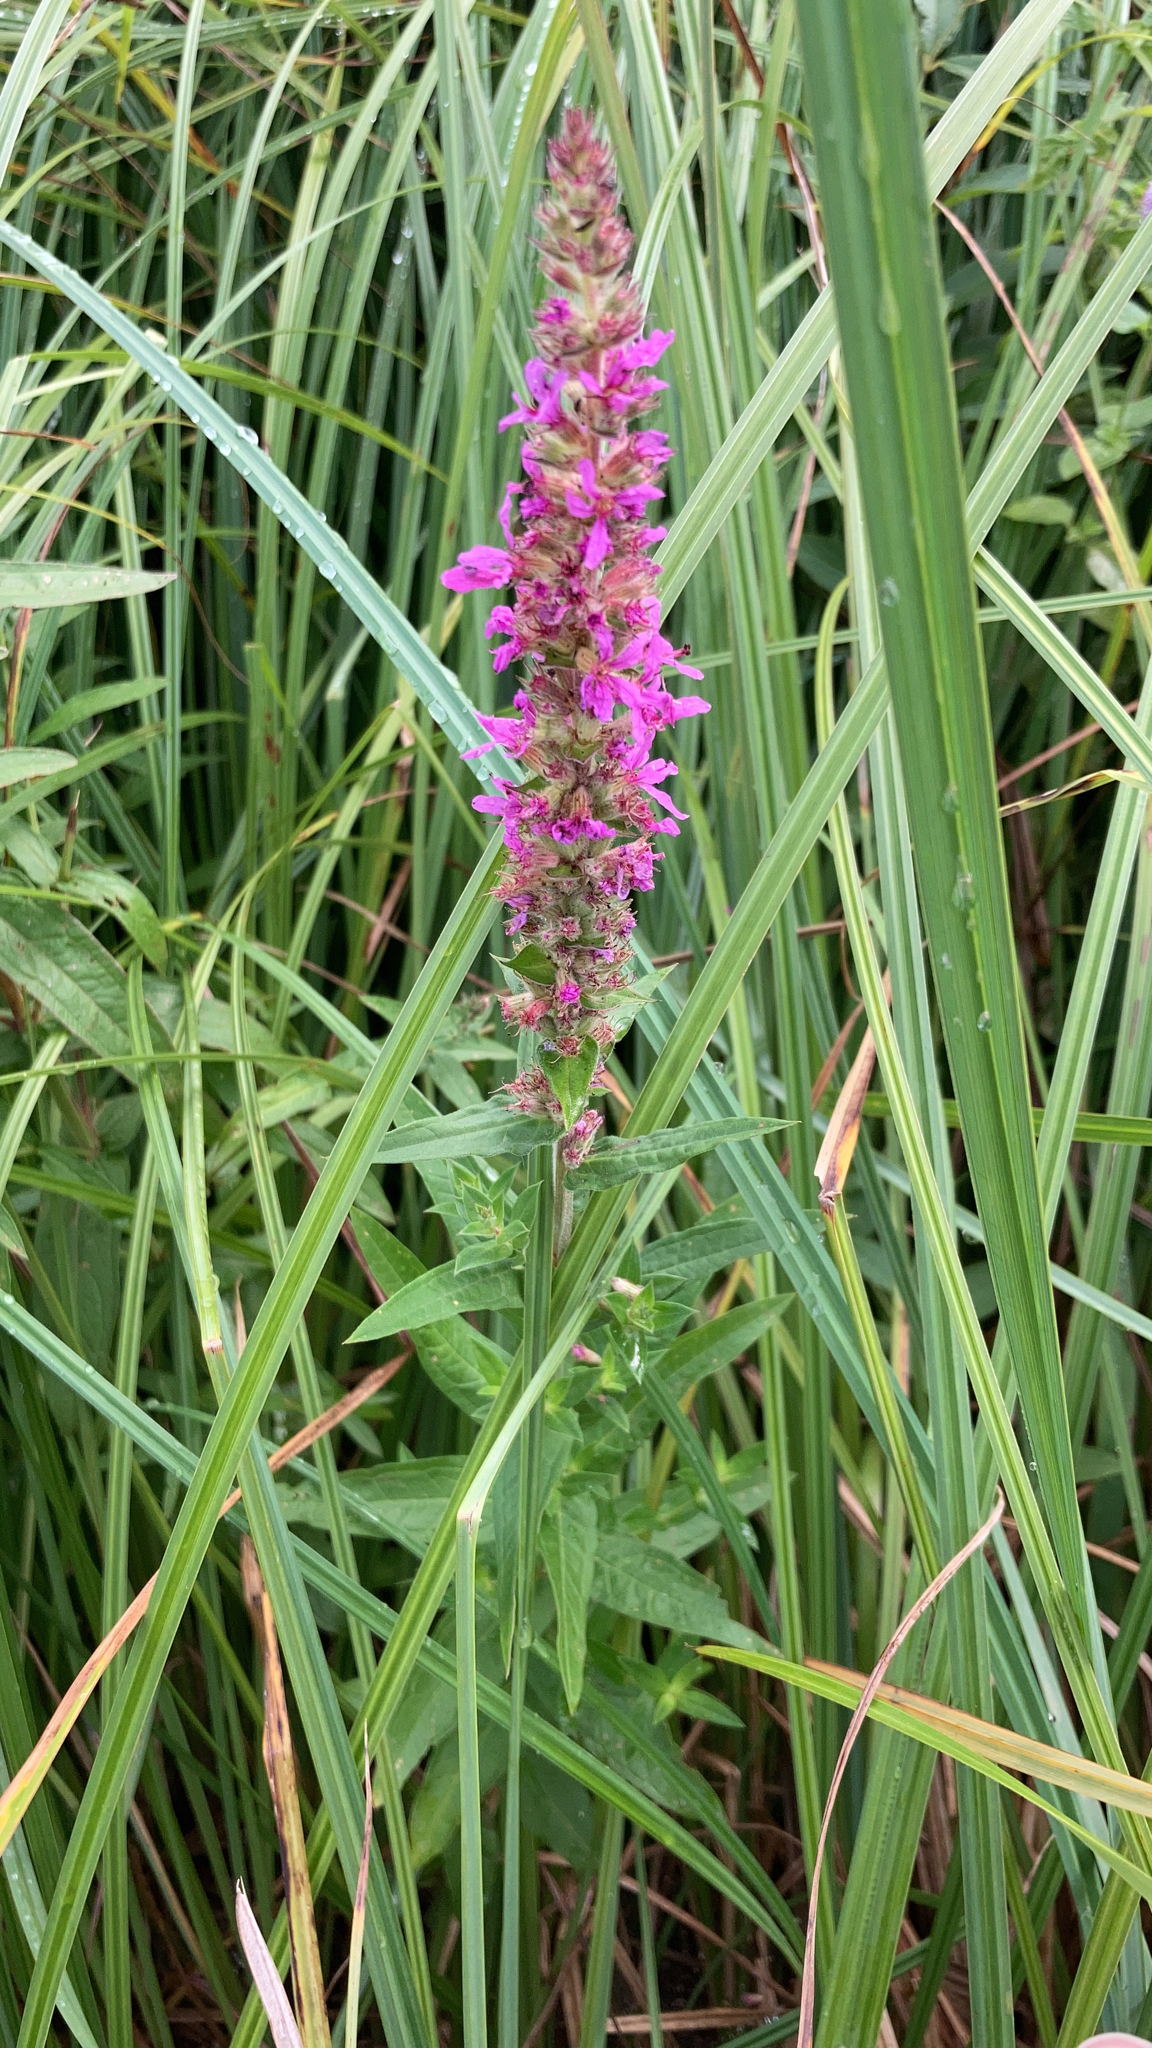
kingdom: Plantae
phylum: Tracheophyta
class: Magnoliopsida
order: Myrtales
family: Lythraceae
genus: Lythrum
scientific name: Lythrum salicaria
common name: Purple loosestrife
